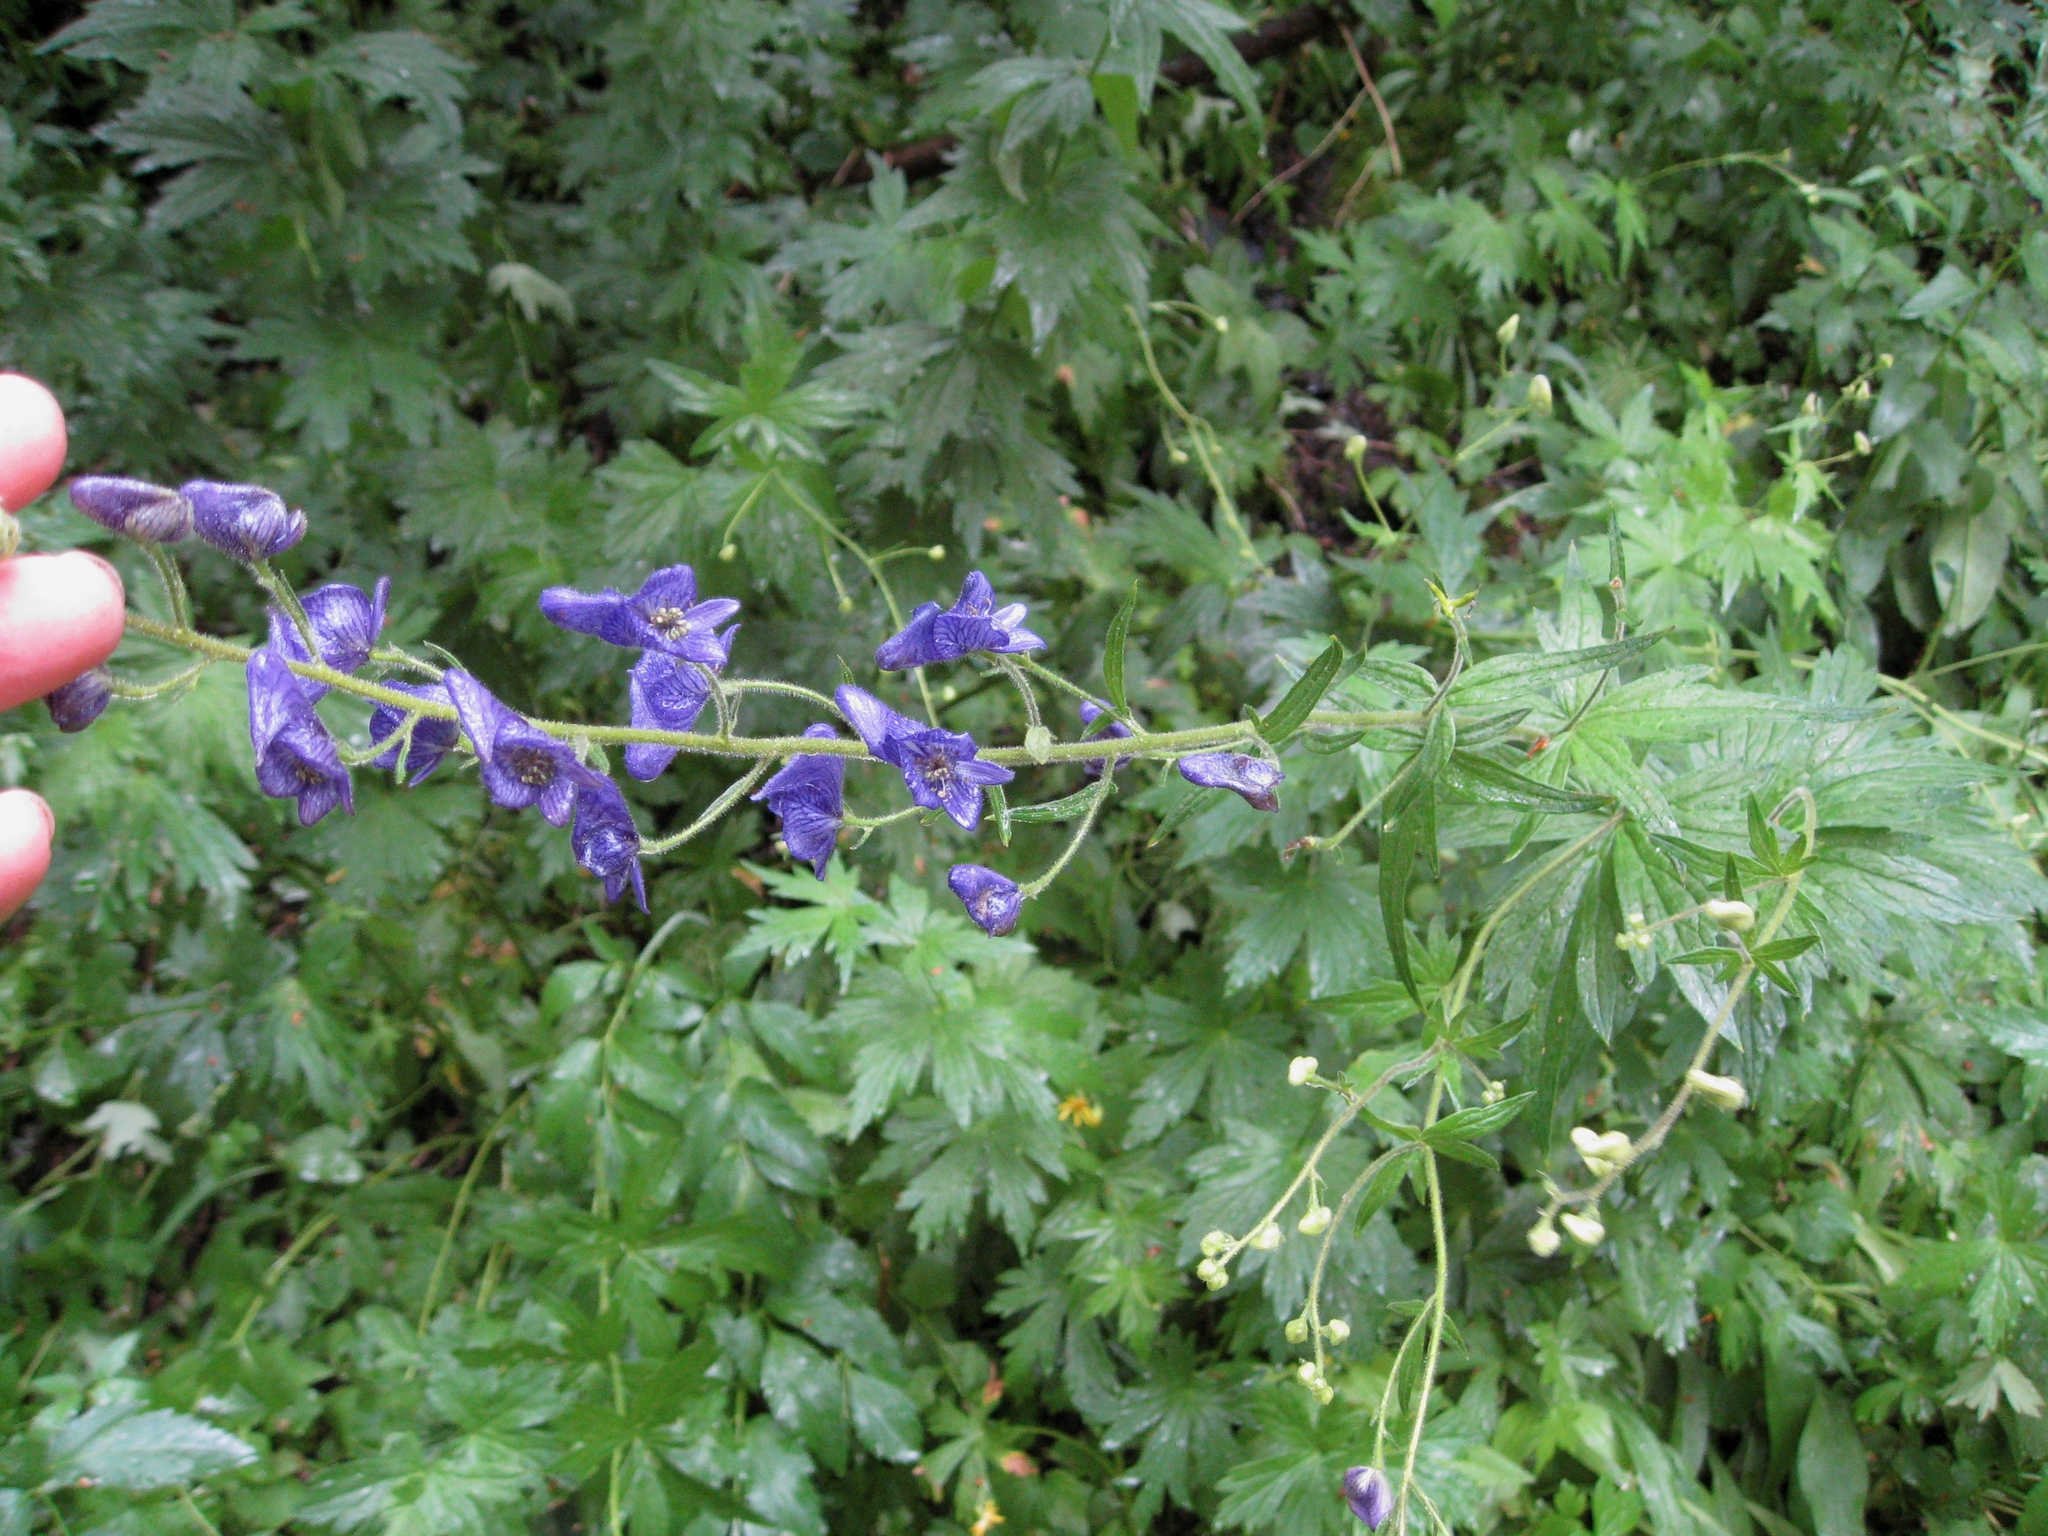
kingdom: Plantae
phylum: Tracheophyta
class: Magnoliopsida
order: Ranunculales
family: Ranunculaceae
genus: Aconitum
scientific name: Aconitum columbianum
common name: Columbia aconite
